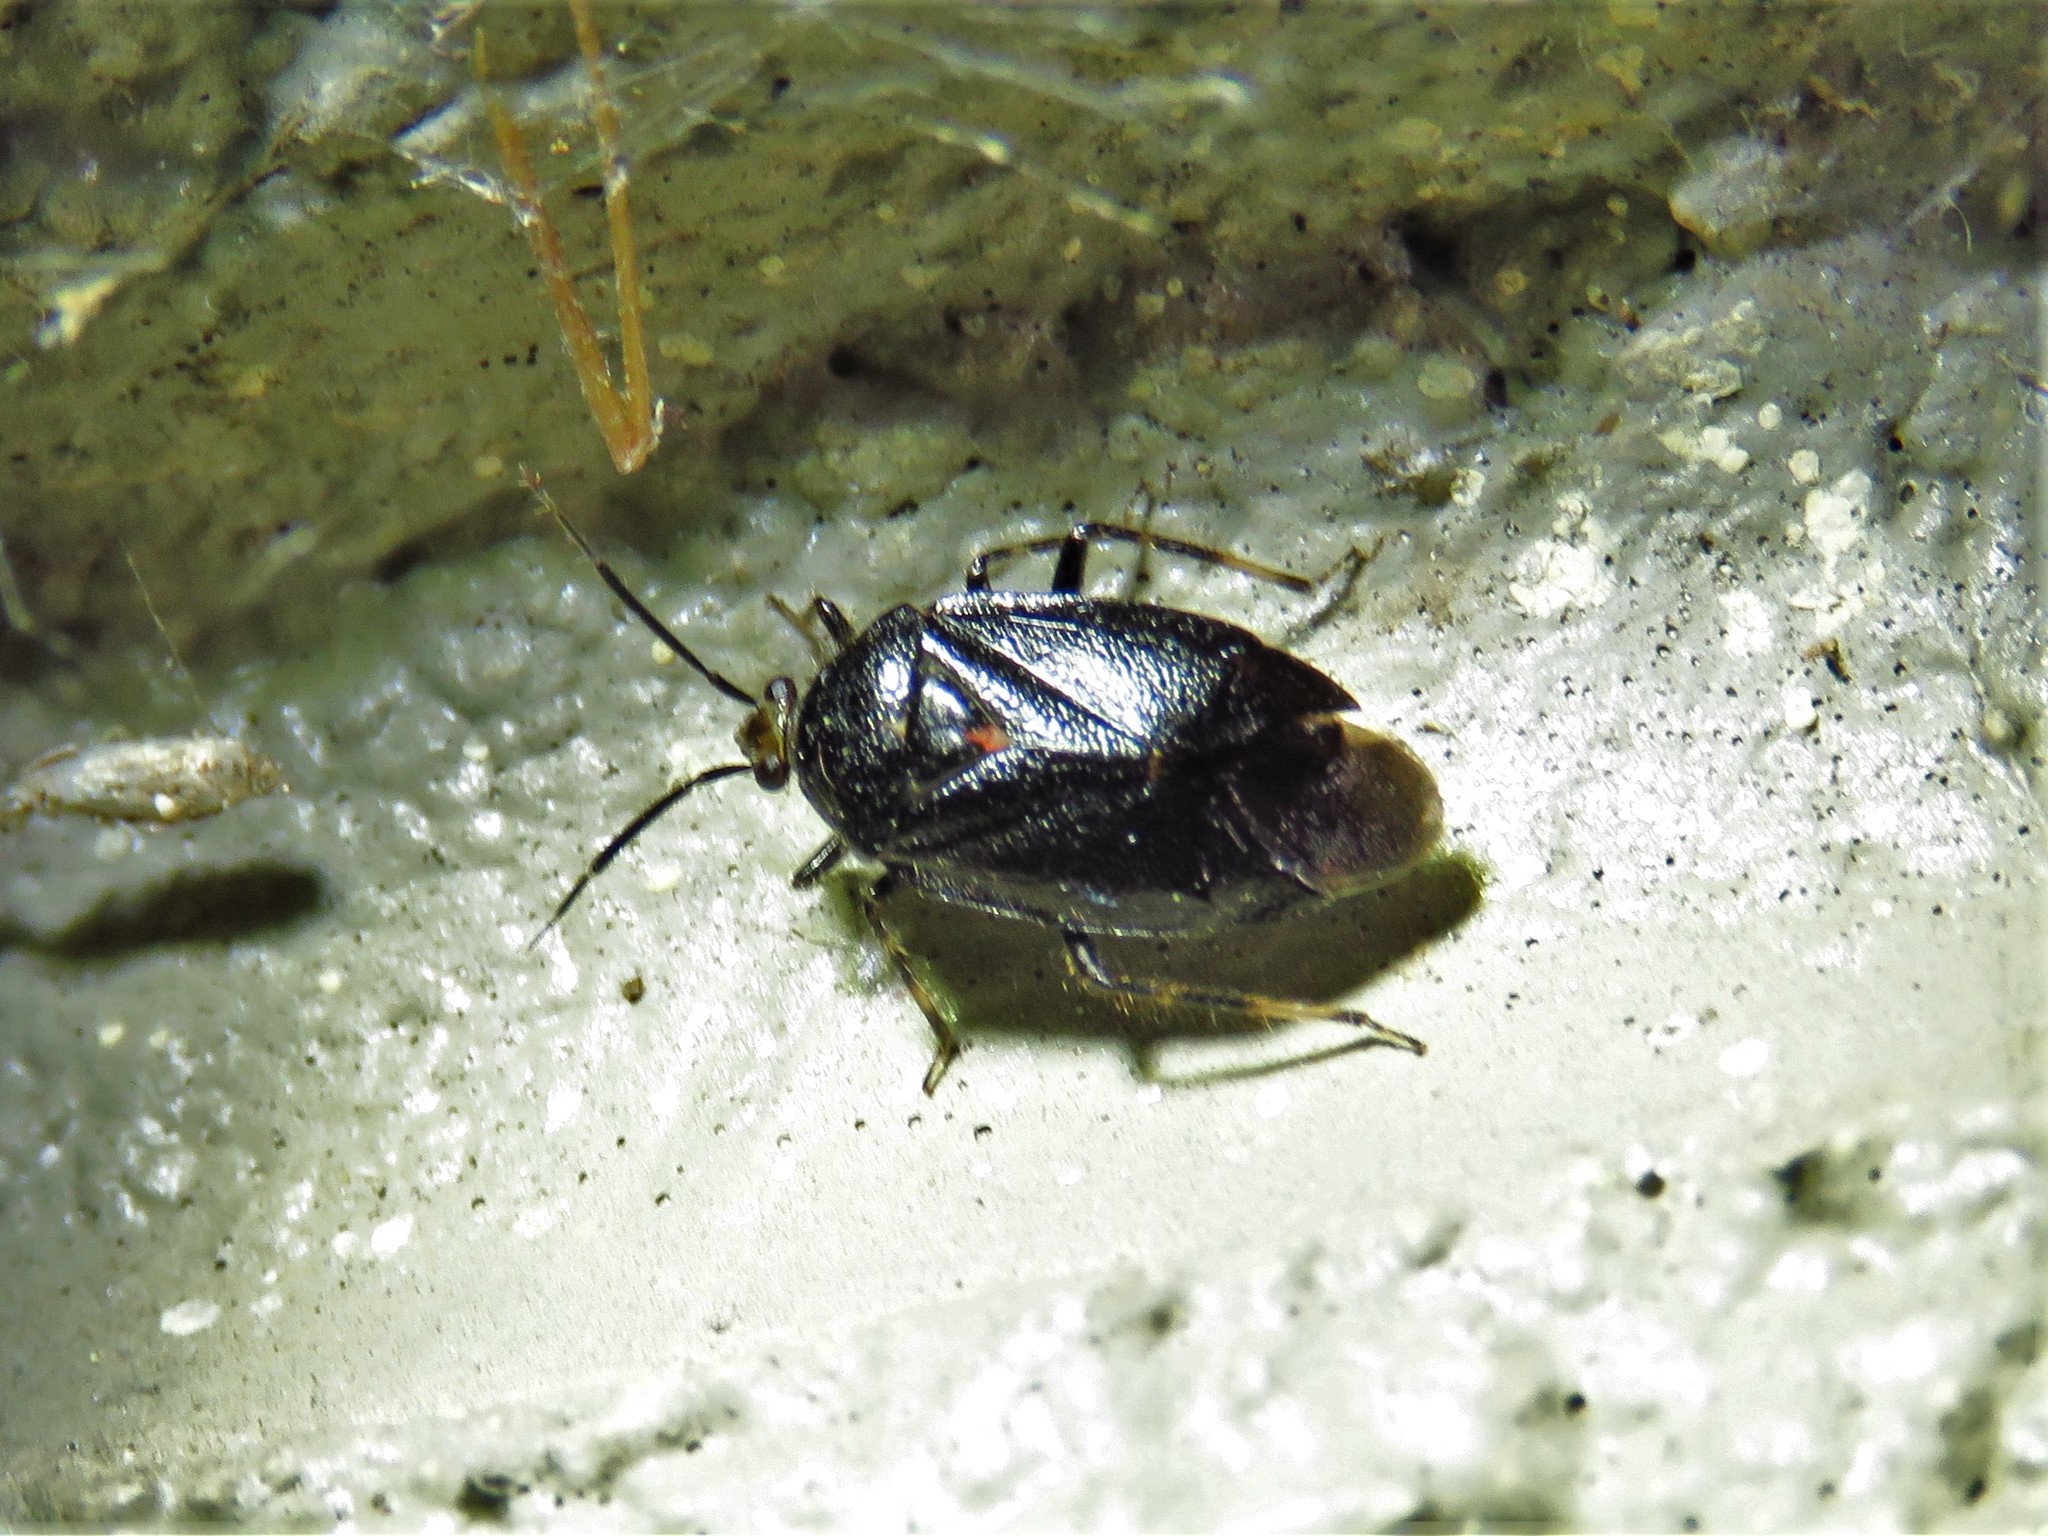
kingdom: Animalia
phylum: Arthropoda
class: Insecta
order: Hemiptera
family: Miridae
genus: Deraeocoris
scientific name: Deraeocoris sayi
